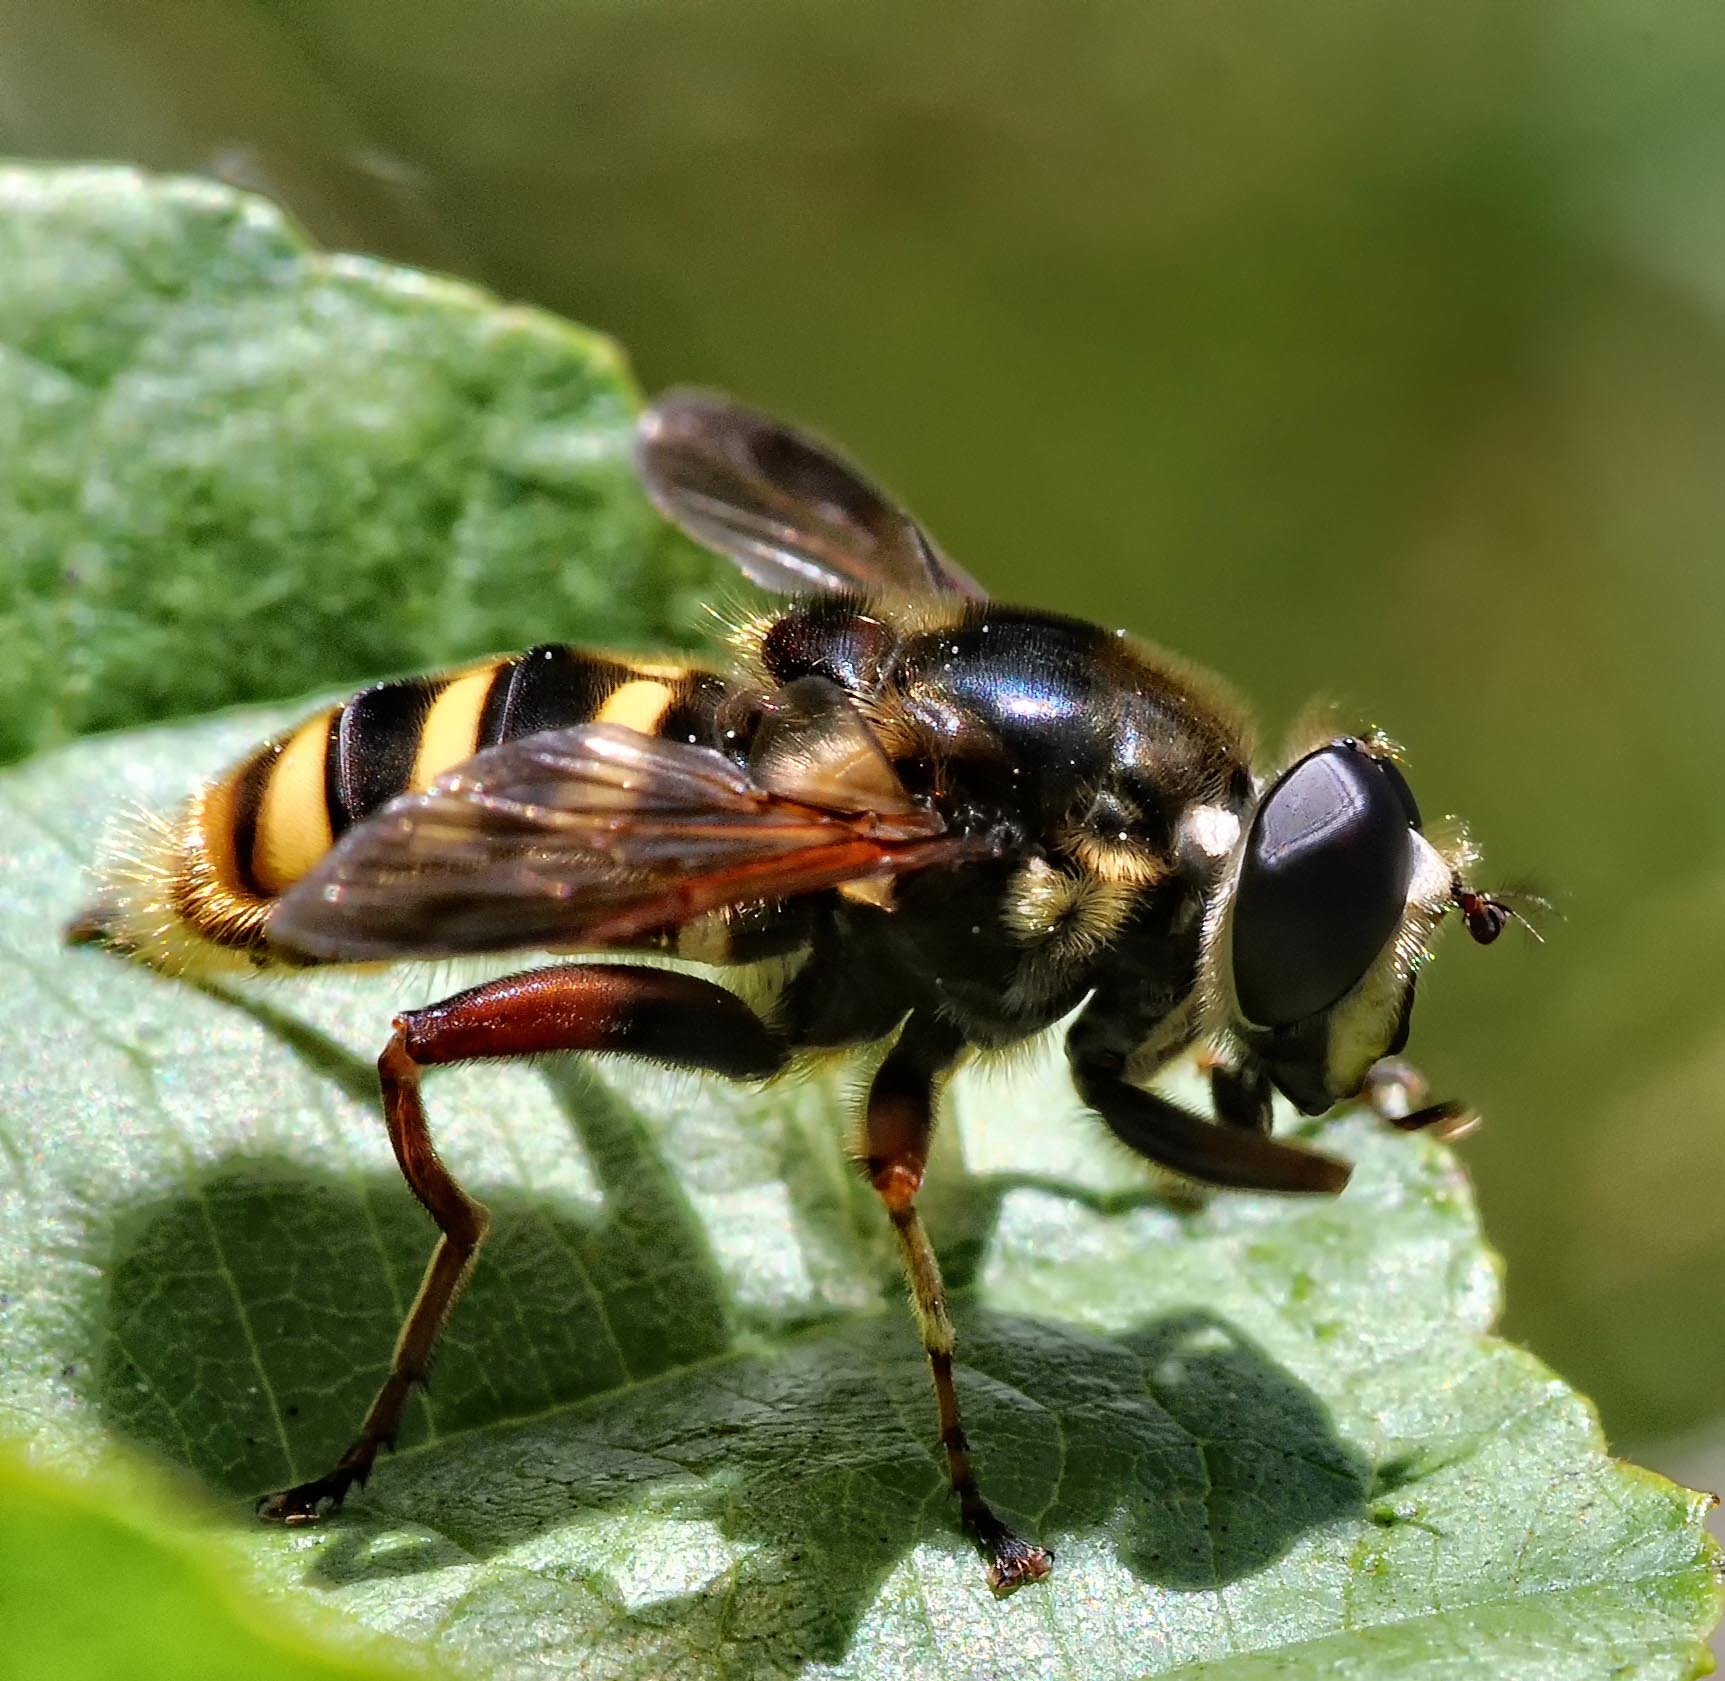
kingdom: Animalia
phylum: Arthropoda
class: Insecta
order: Diptera
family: Syrphidae
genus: Sericomyia
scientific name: Sericomyia silentis
